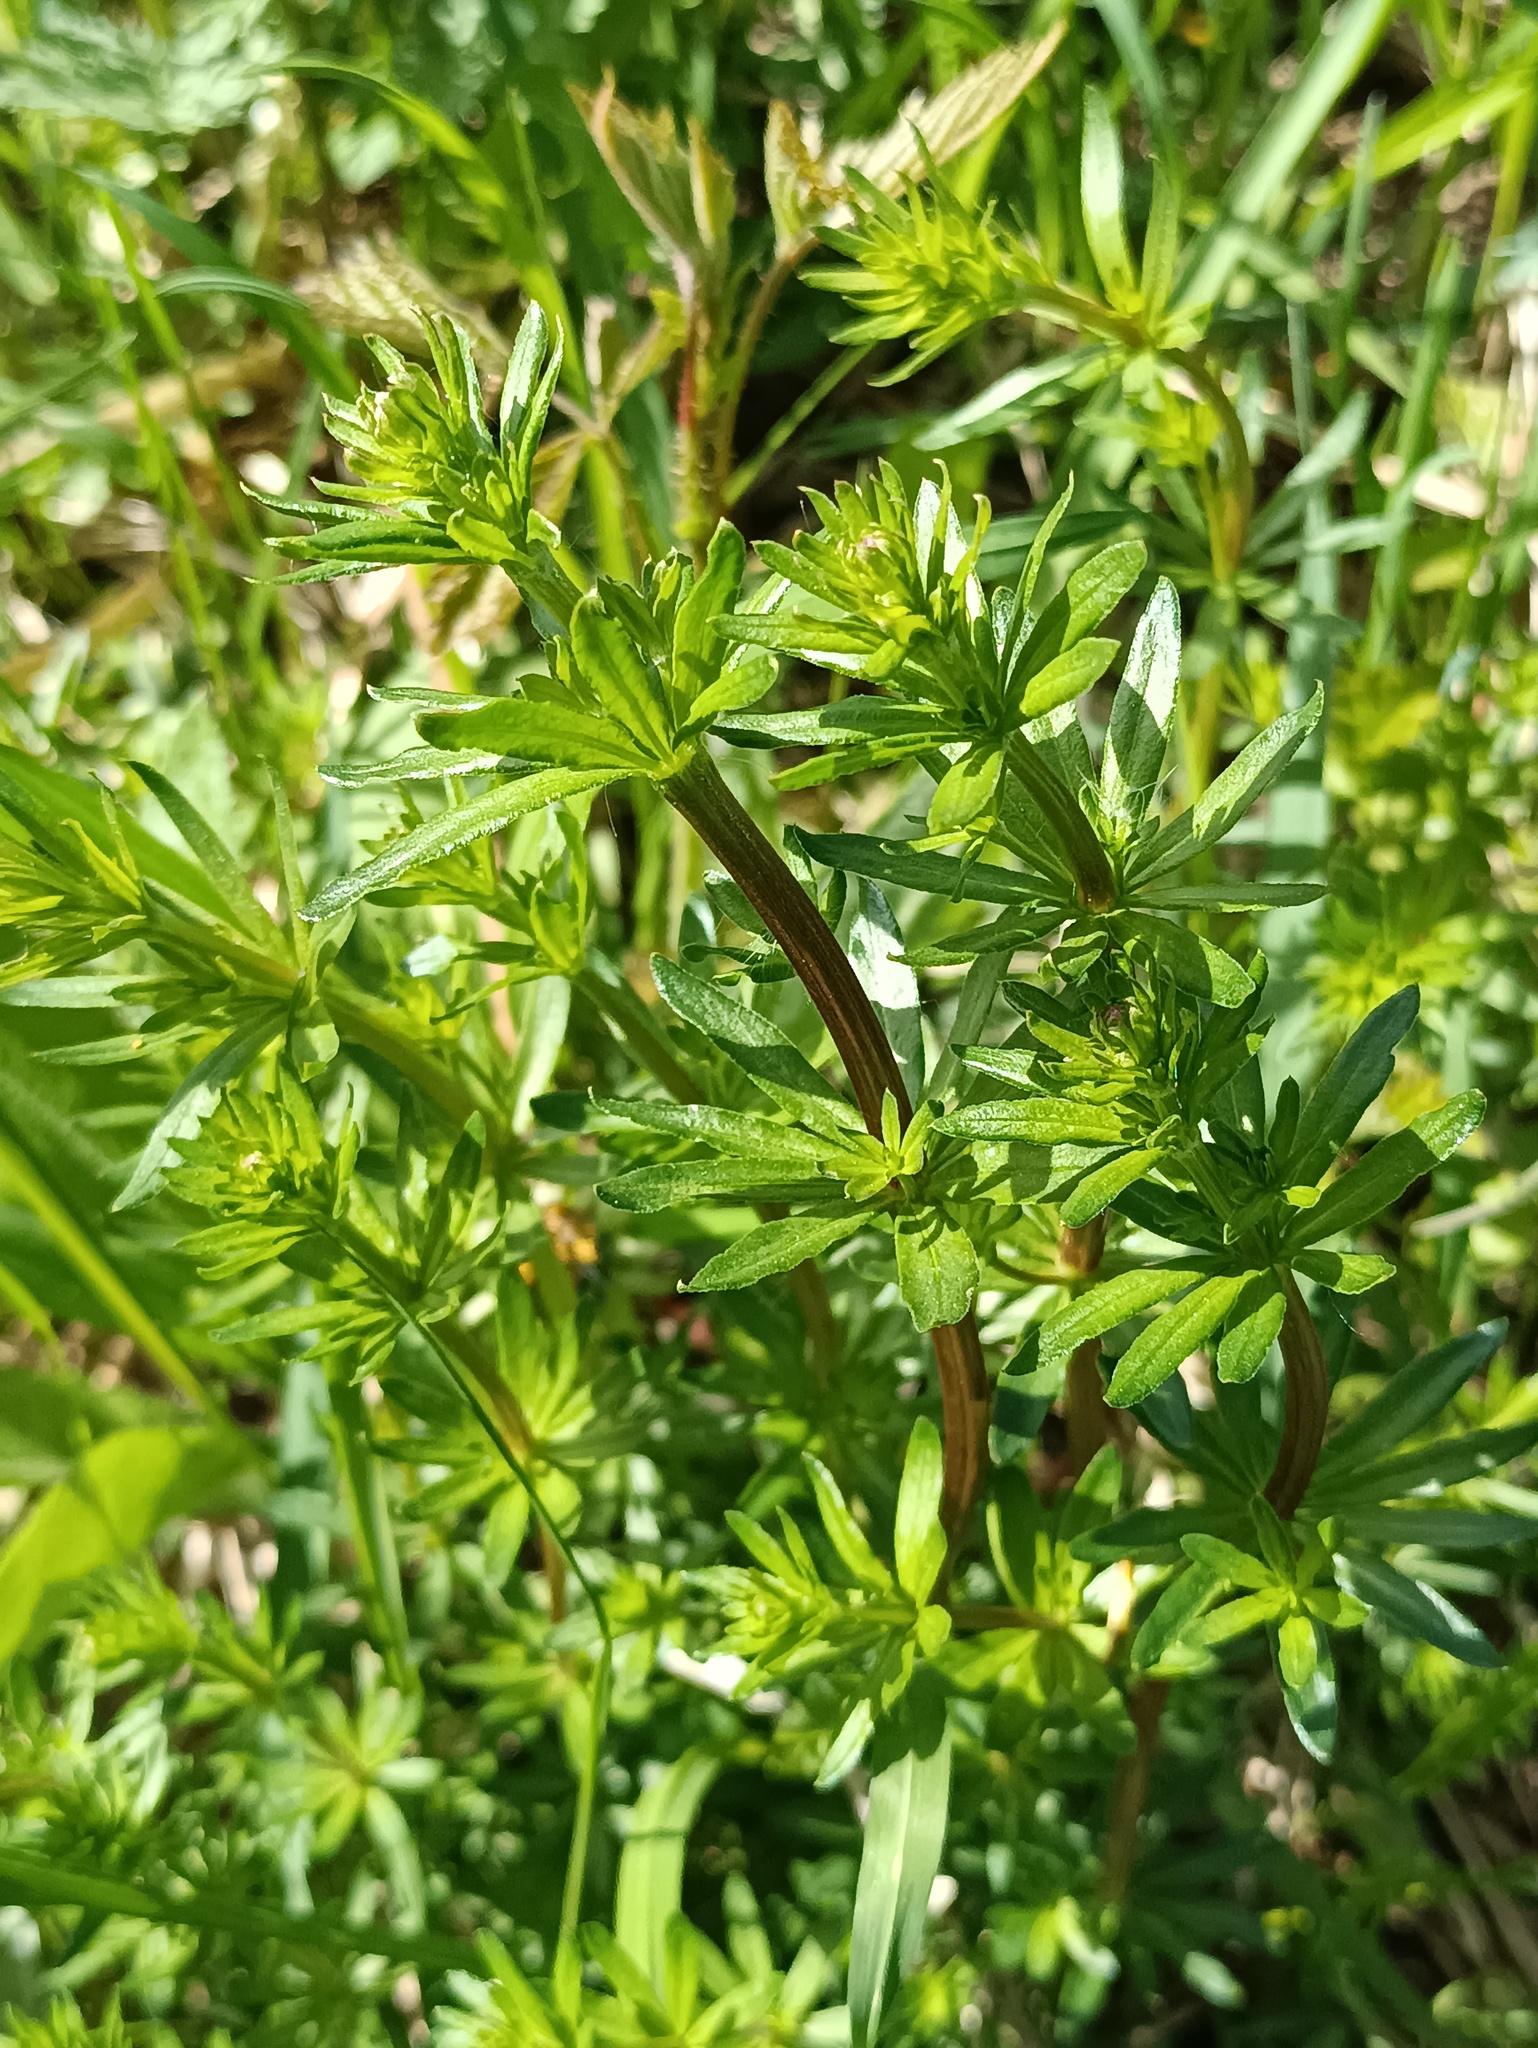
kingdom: Plantae
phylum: Tracheophyta
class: Magnoliopsida
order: Gentianales
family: Rubiaceae
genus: Galium
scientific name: Galium mollugo
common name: Hedge bedstraw
